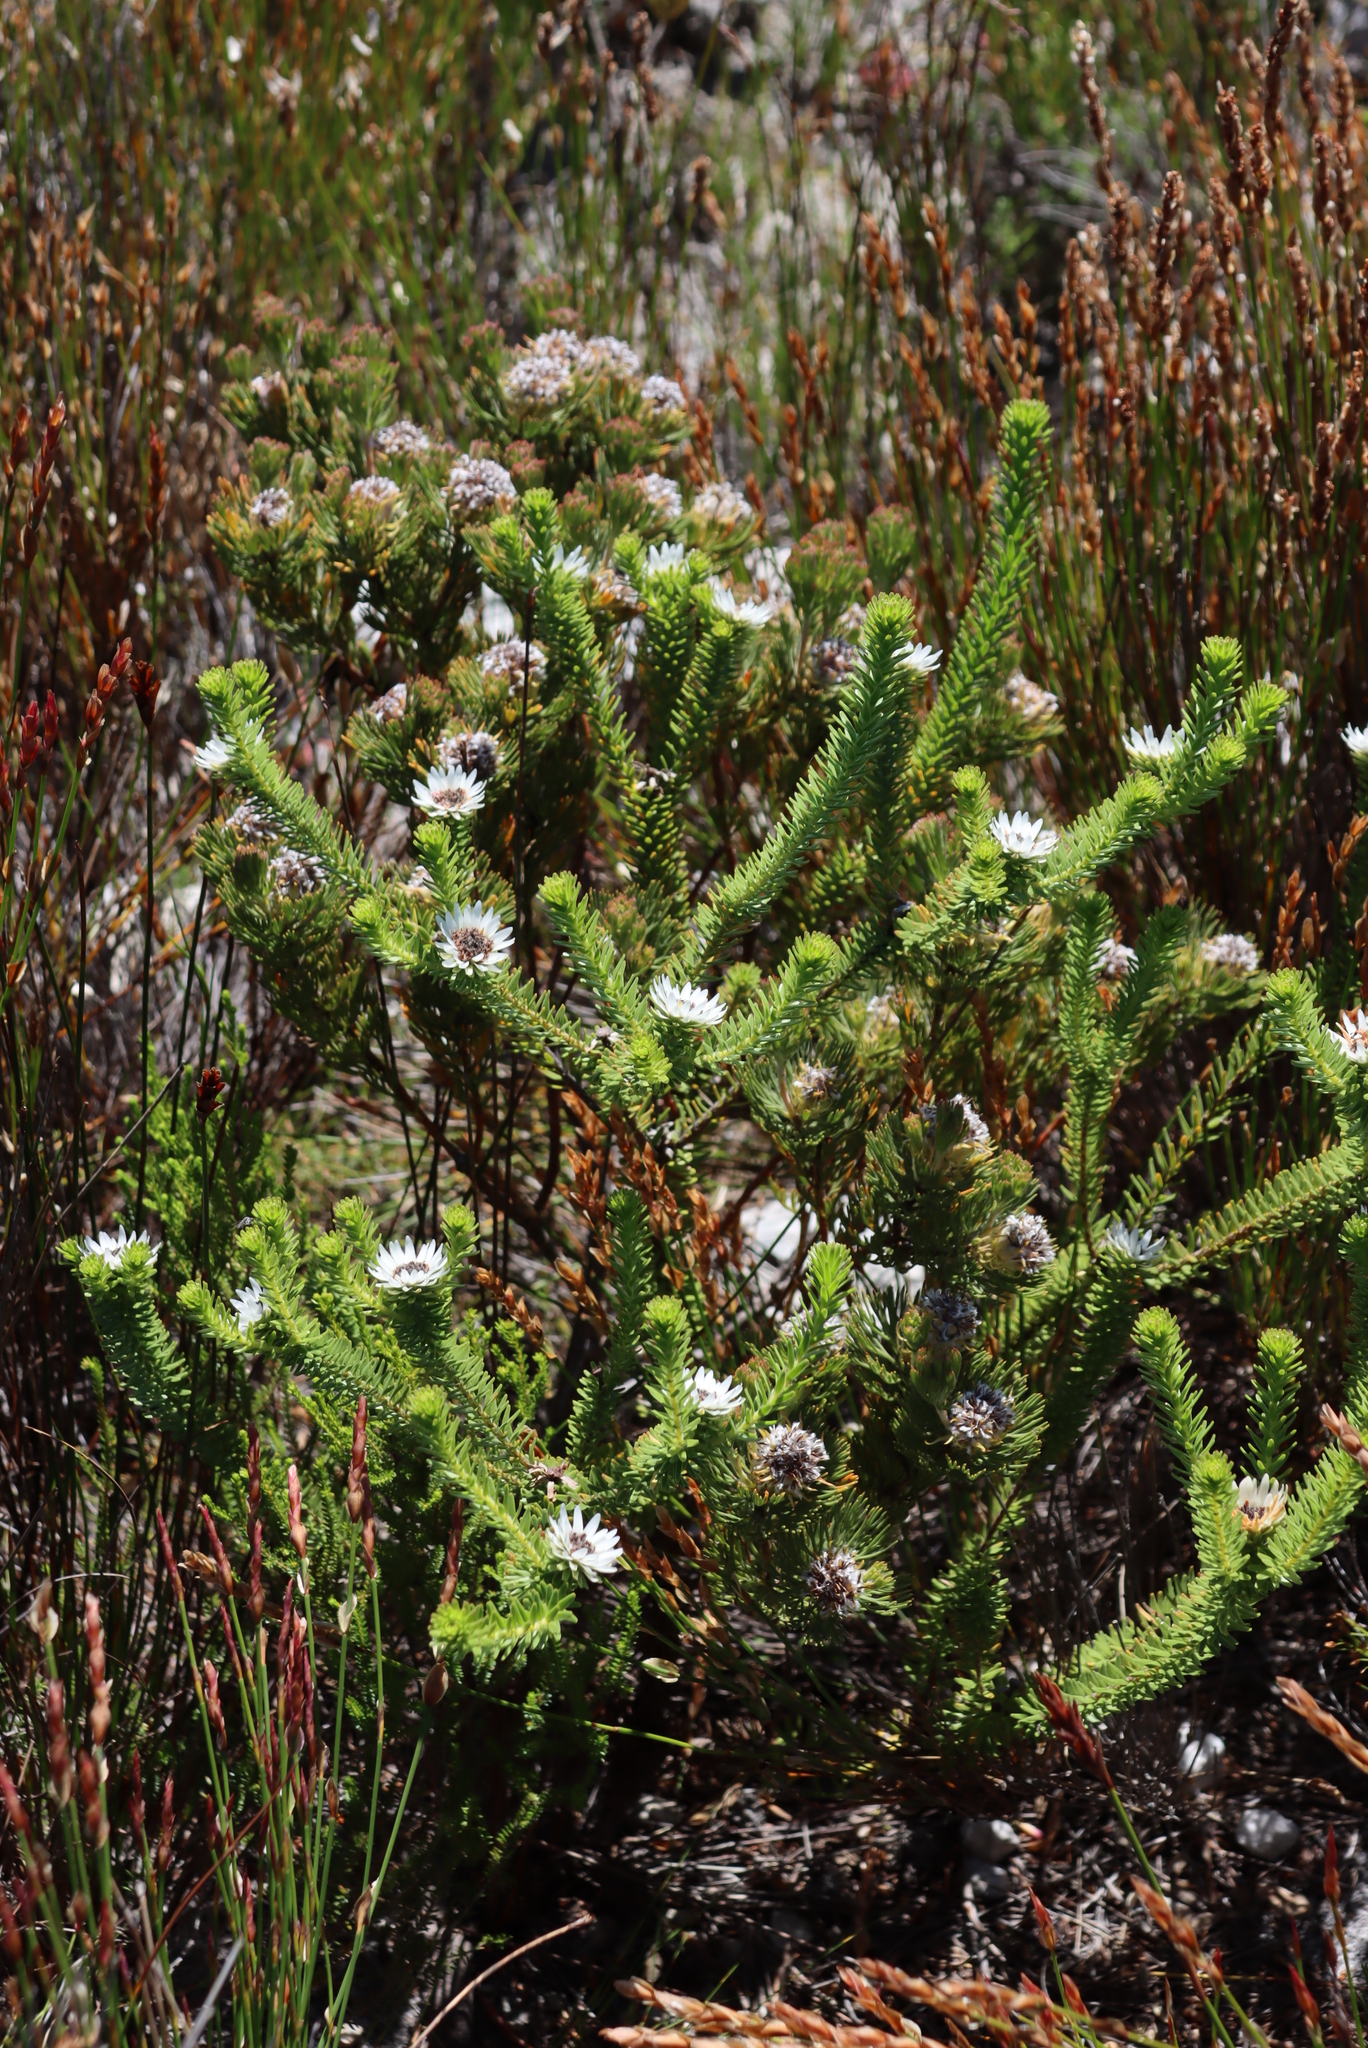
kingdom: Plantae
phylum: Tracheophyta
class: Magnoliopsida
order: Bruniales
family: Bruniaceae
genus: Staavia
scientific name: Staavia dodii
